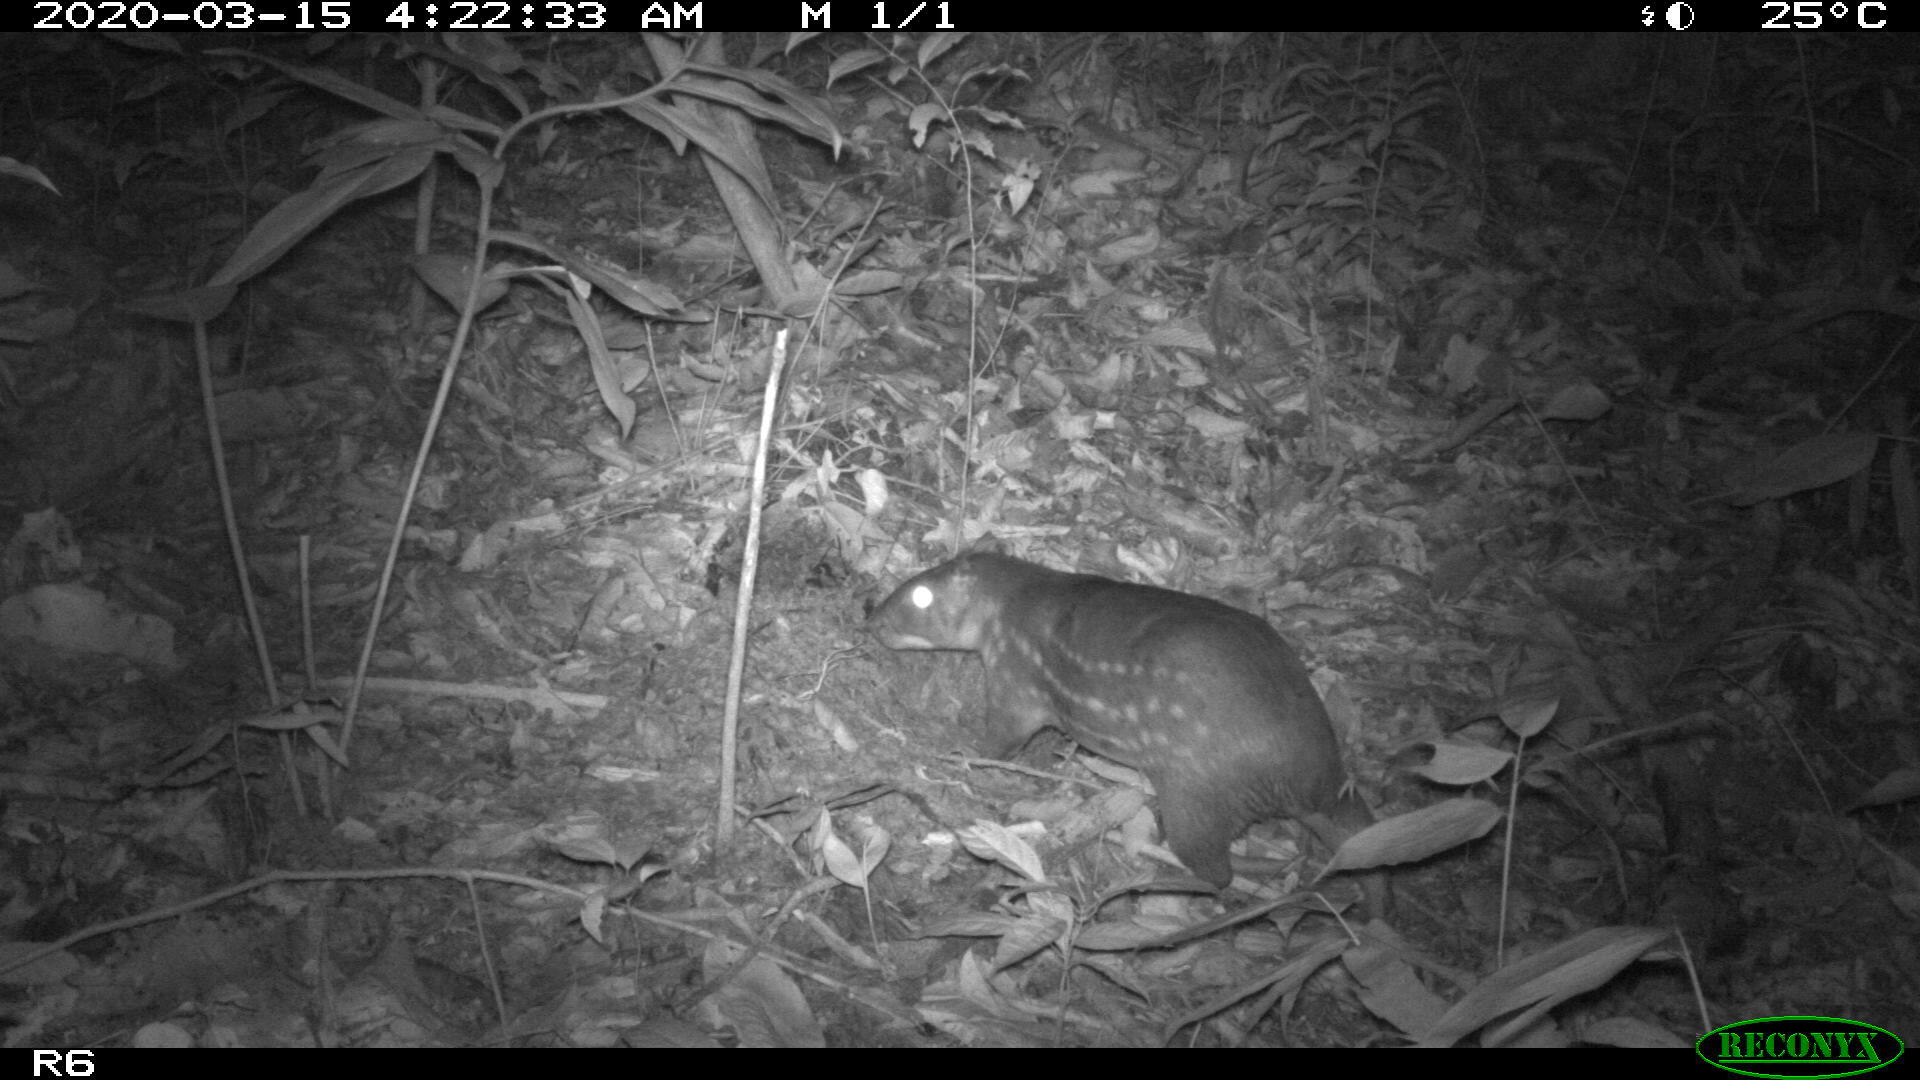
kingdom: Animalia
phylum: Chordata
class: Mammalia
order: Rodentia
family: Cuniculidae
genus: Cuniculus
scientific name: Cuniculus paca
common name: Lowland paca
